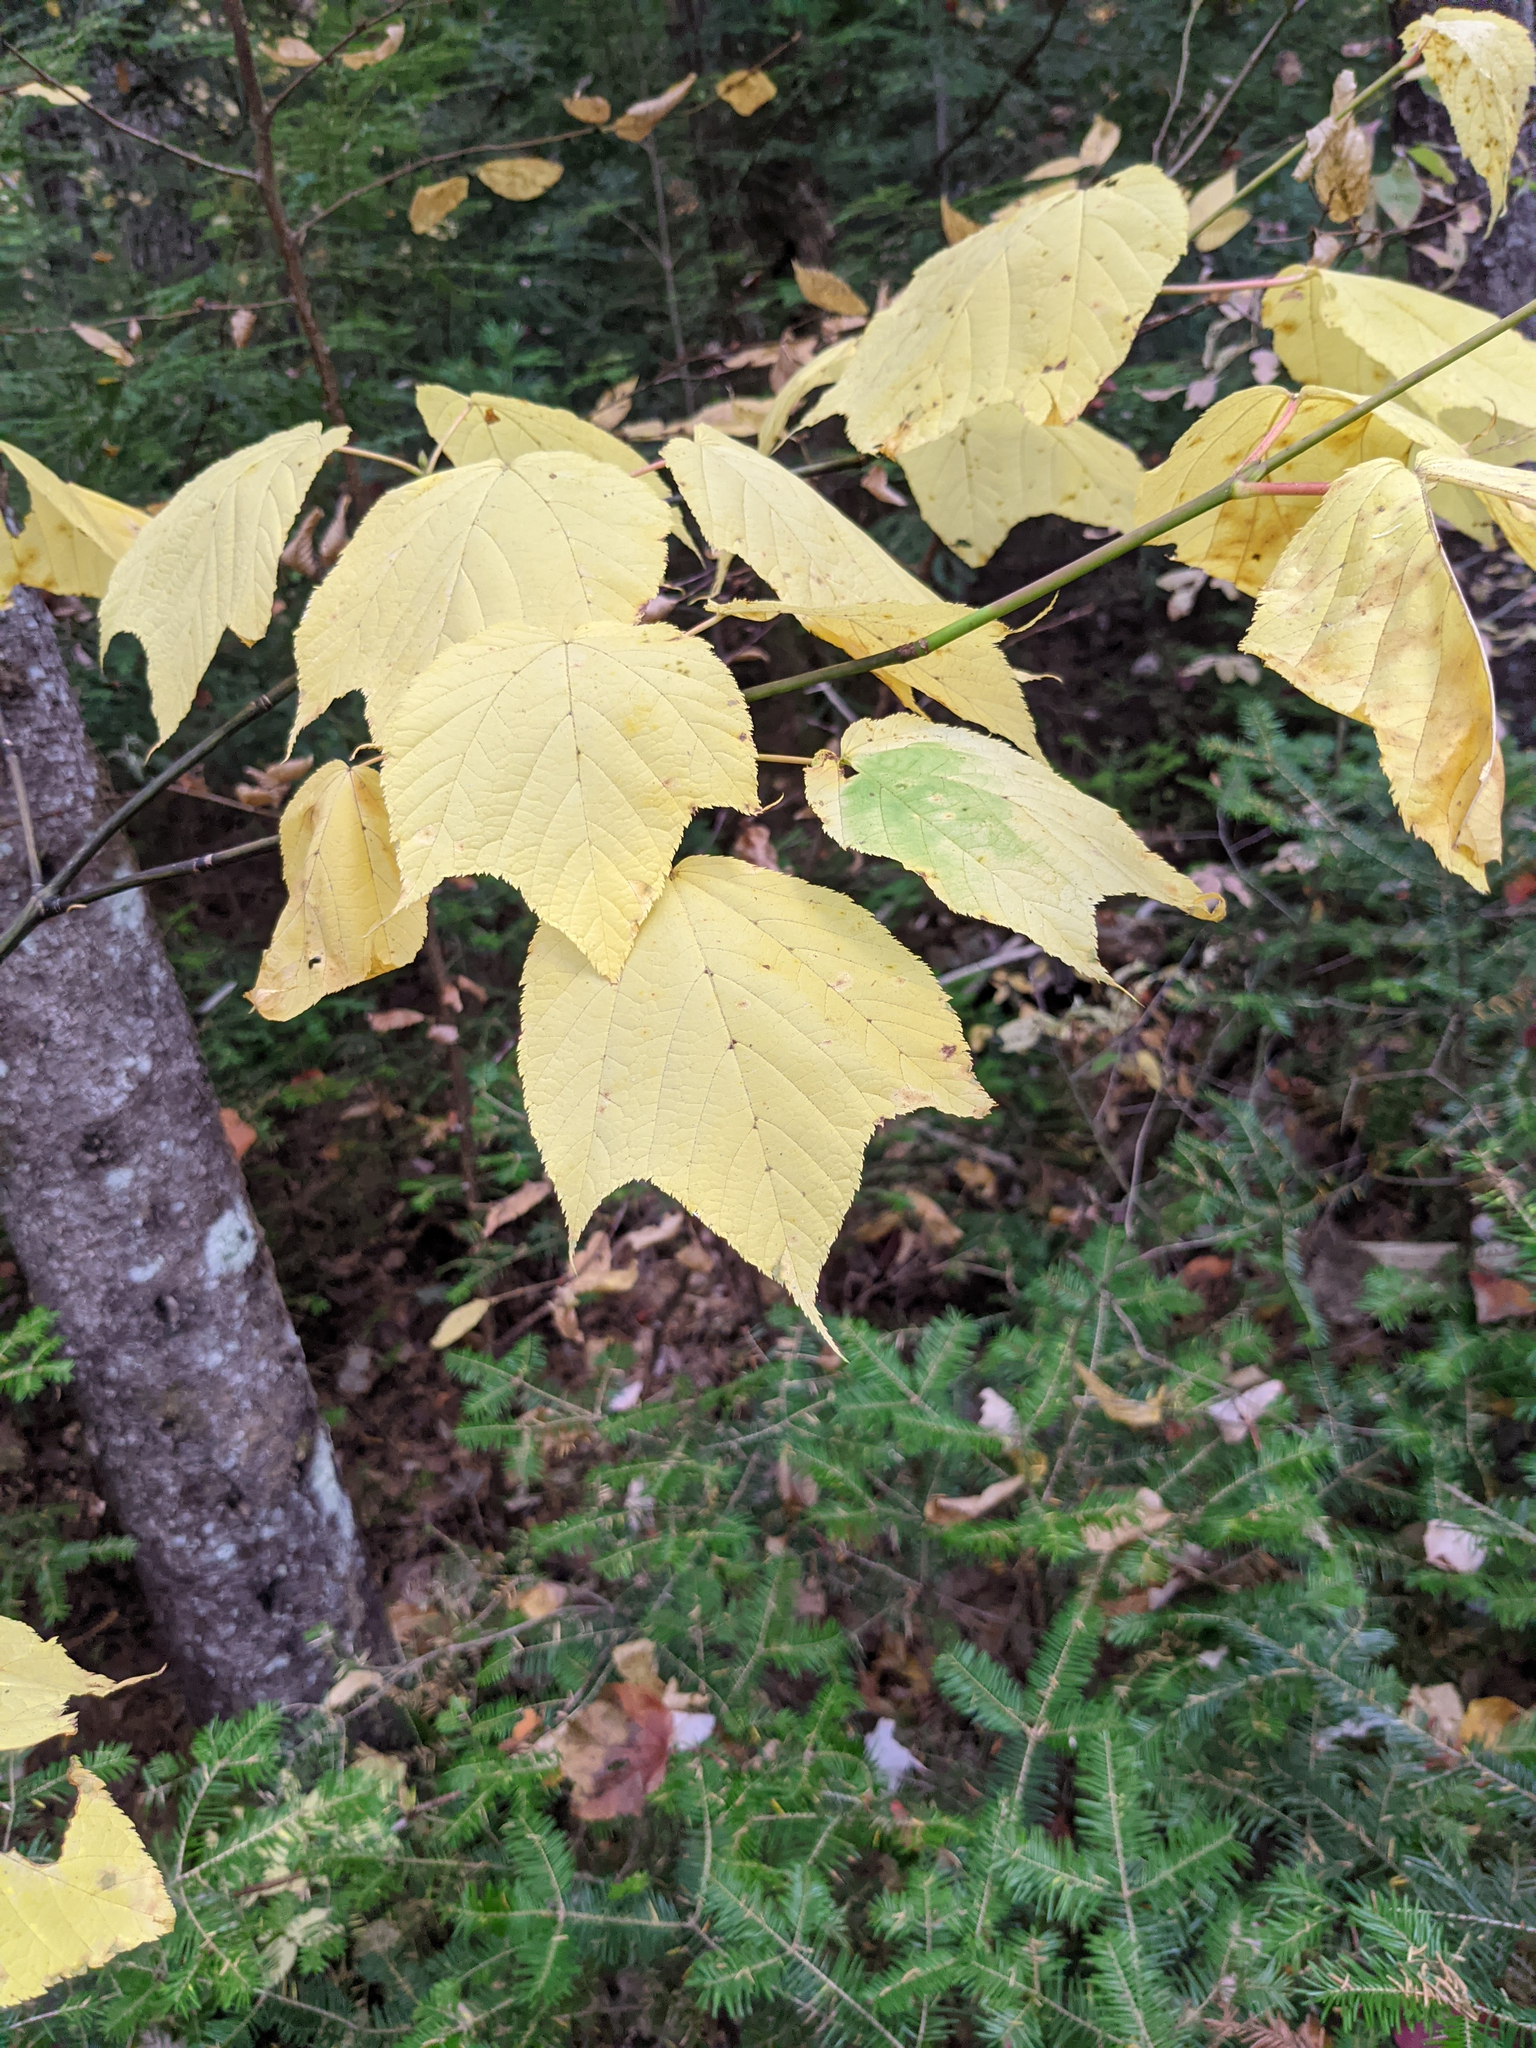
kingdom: Plantae
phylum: Tracheophyta
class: Magnoliopsida
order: Sapindales
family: Sapindaceae
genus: Acer
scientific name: Acer pensylvanicum
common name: Moosewood
